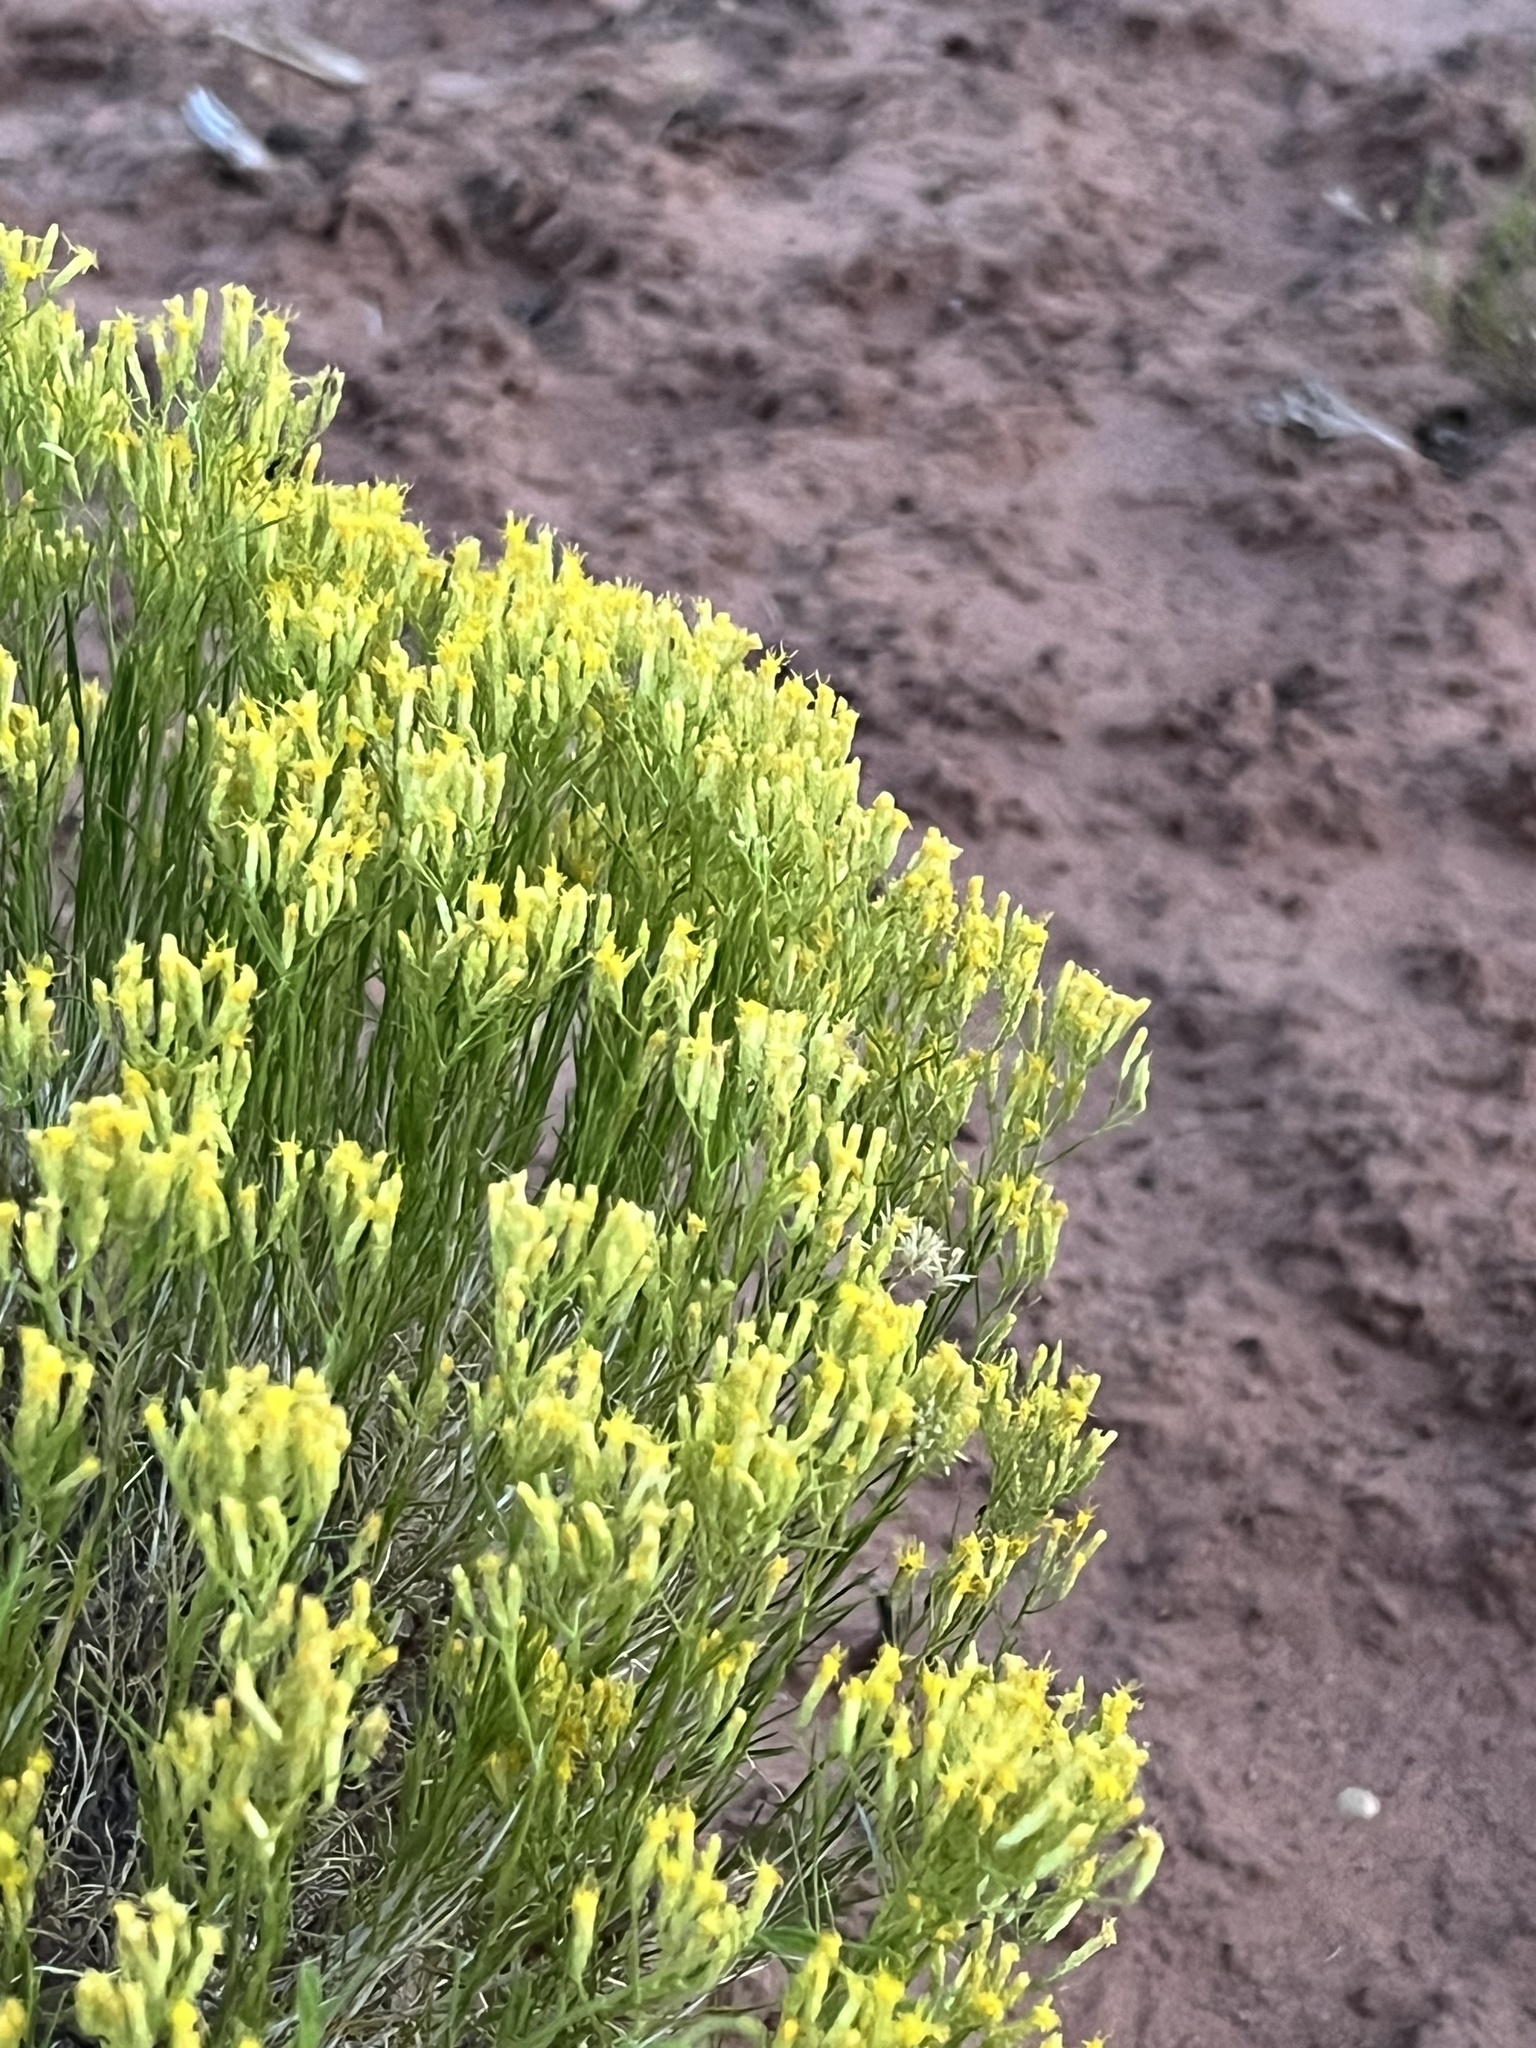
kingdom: Plantae
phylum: Tracheophyta
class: Magnoliopsida
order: Asterales
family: Asteraceae
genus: Gutierrezia
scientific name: Gutierrezia sarothrae
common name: Broom snakeweed
